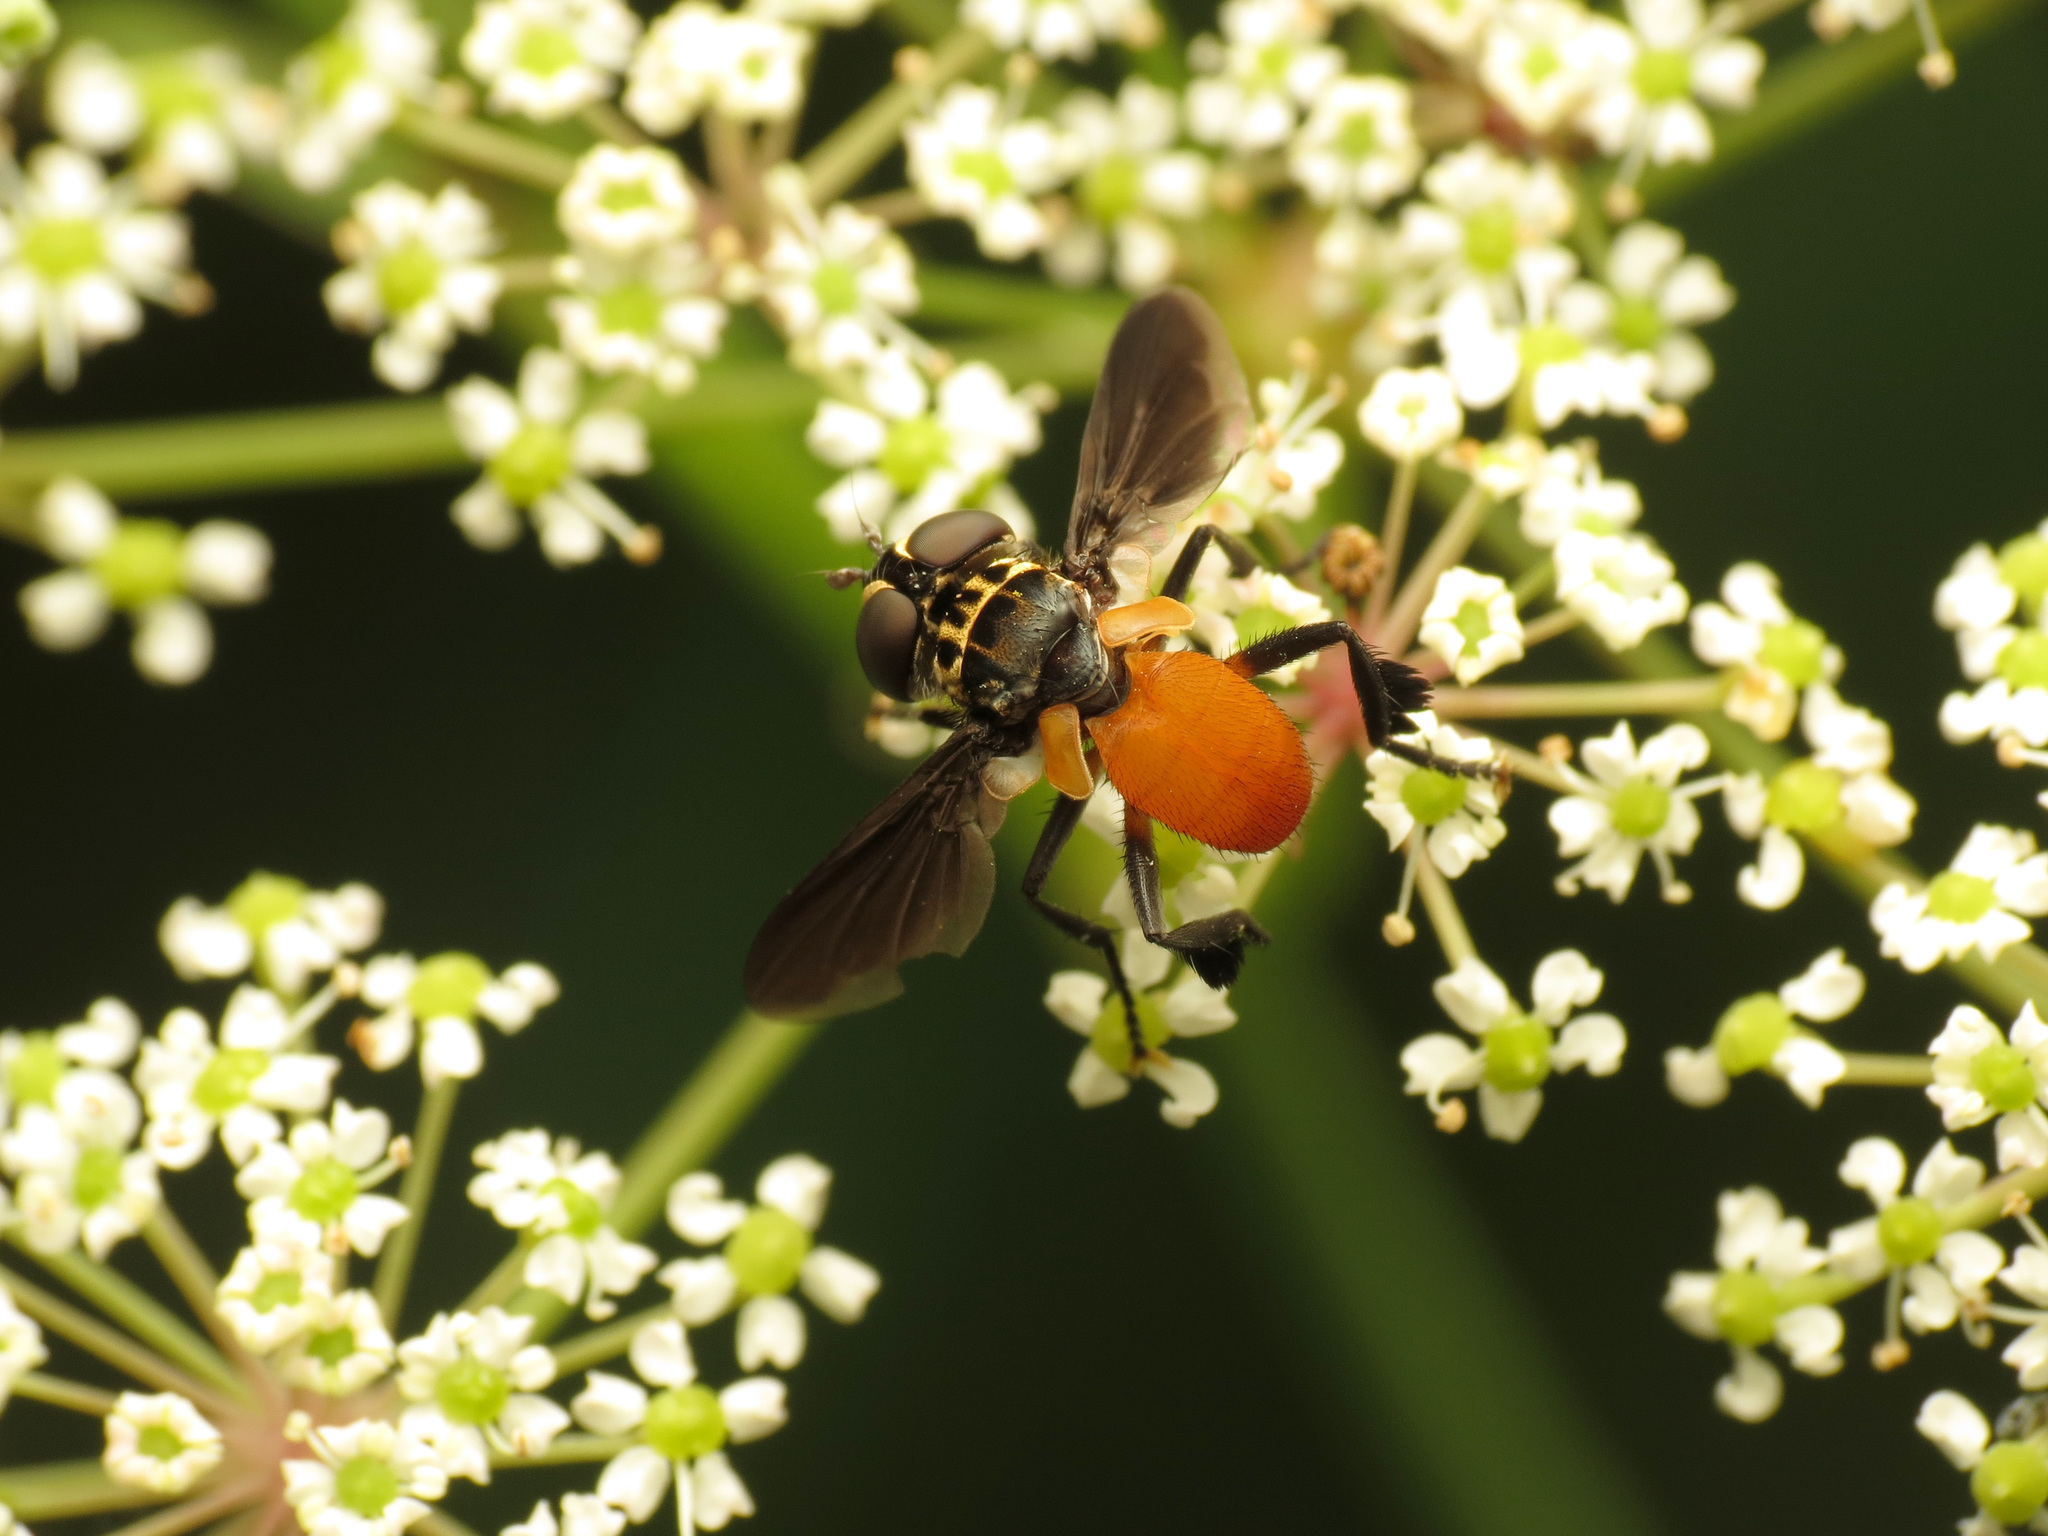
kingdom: Animalia
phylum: Arthropoda
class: Insecta
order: Diptera
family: Tachinidae
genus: Trichopoda
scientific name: Trichopoda pennipes
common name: Tachinid fly
